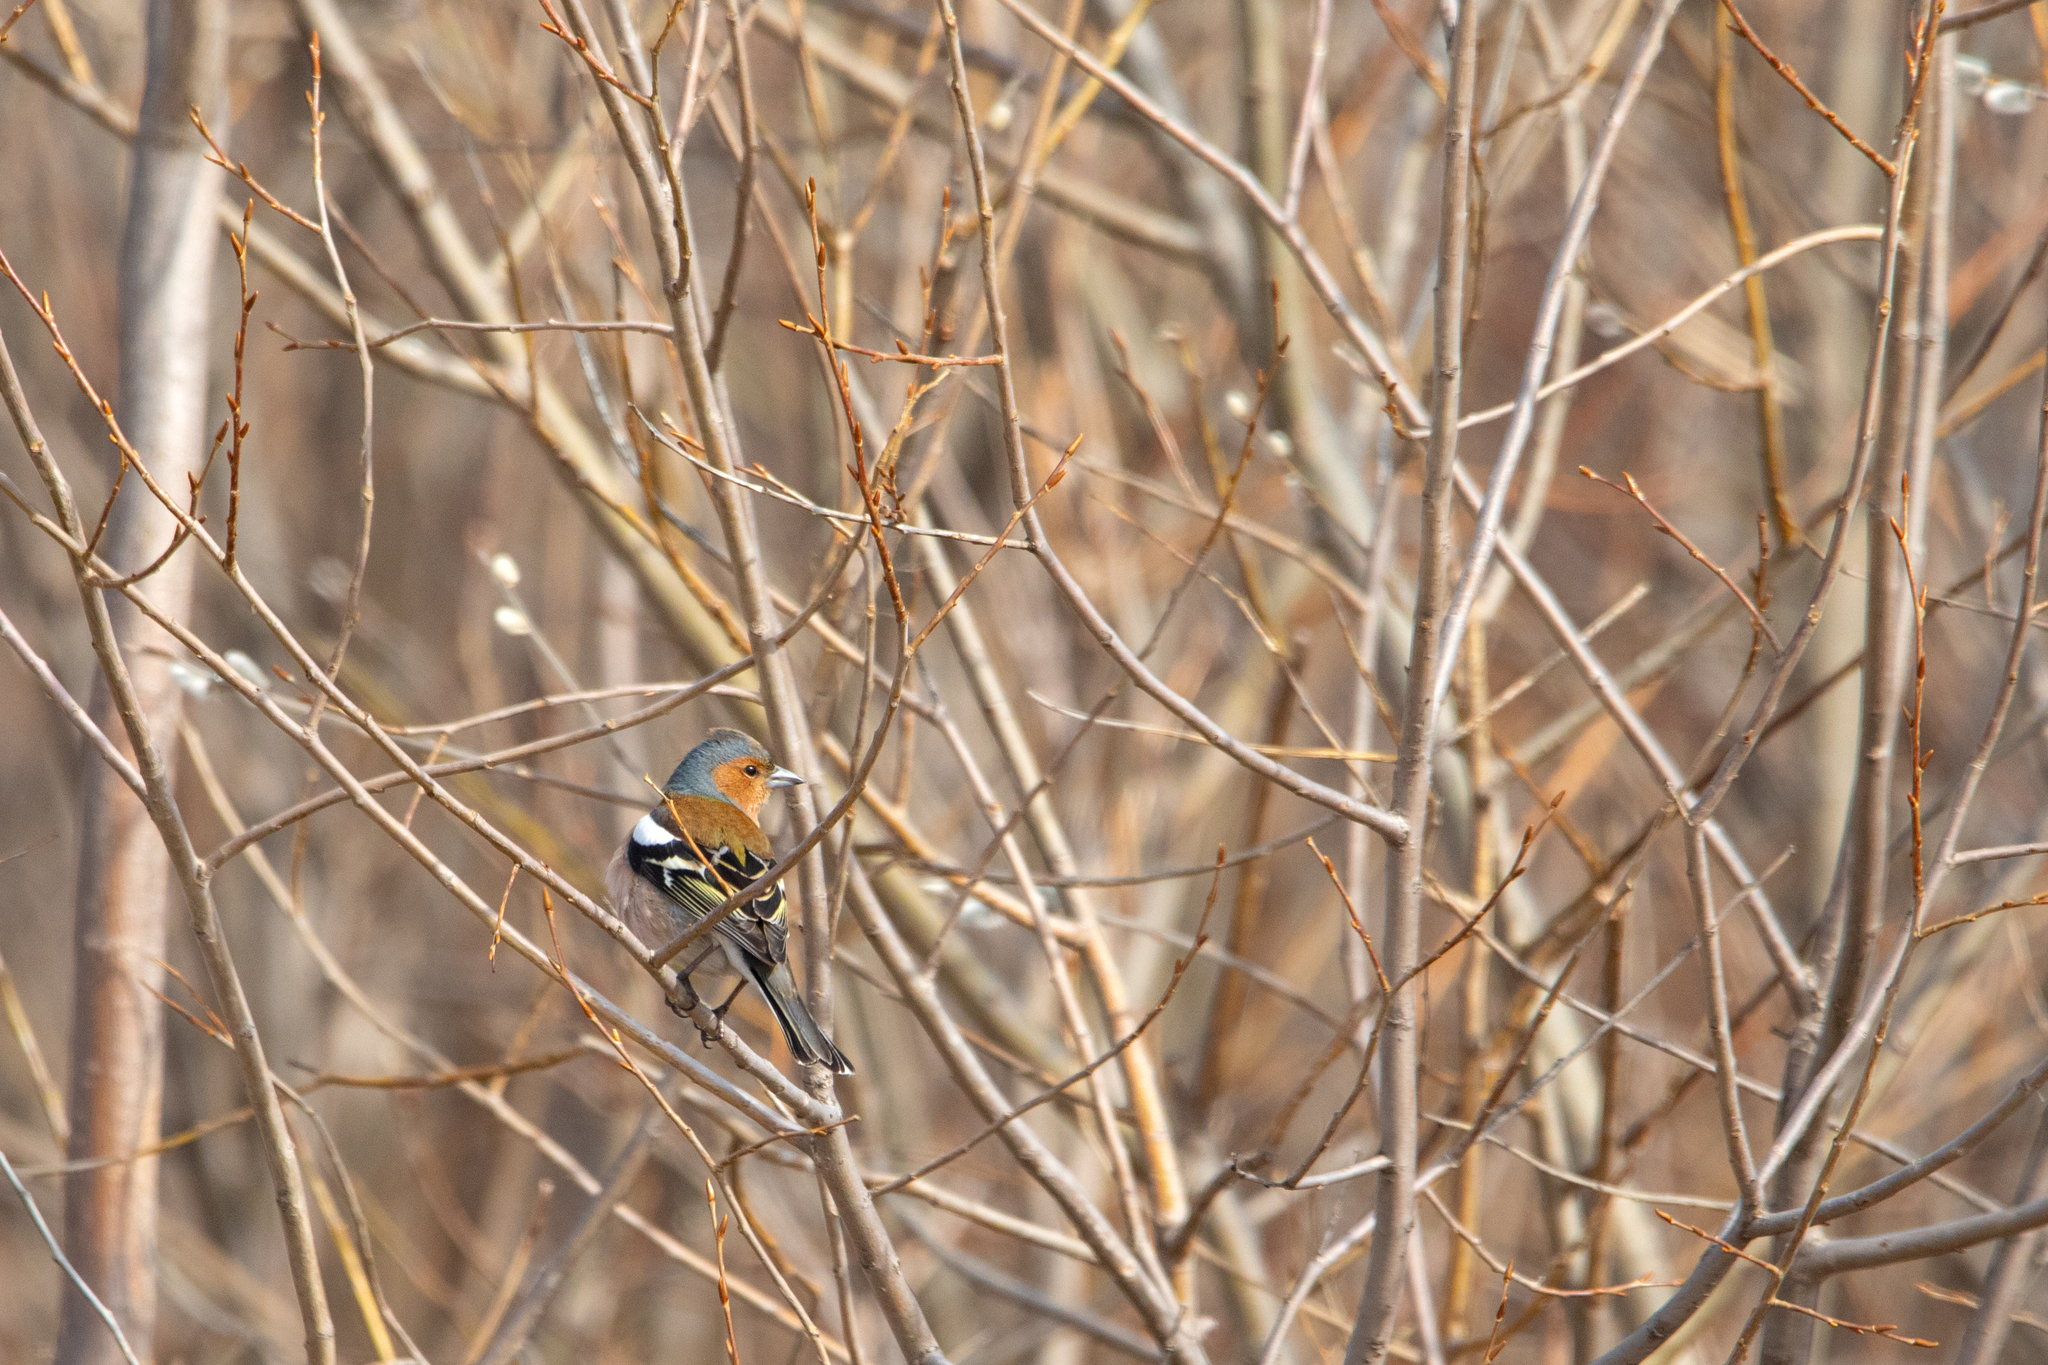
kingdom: Animalia
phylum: Chordata
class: Aves
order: Passeriformes
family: Fringillidae
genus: Fringilla
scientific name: Fringilla coelebs
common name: Common chaffinch
